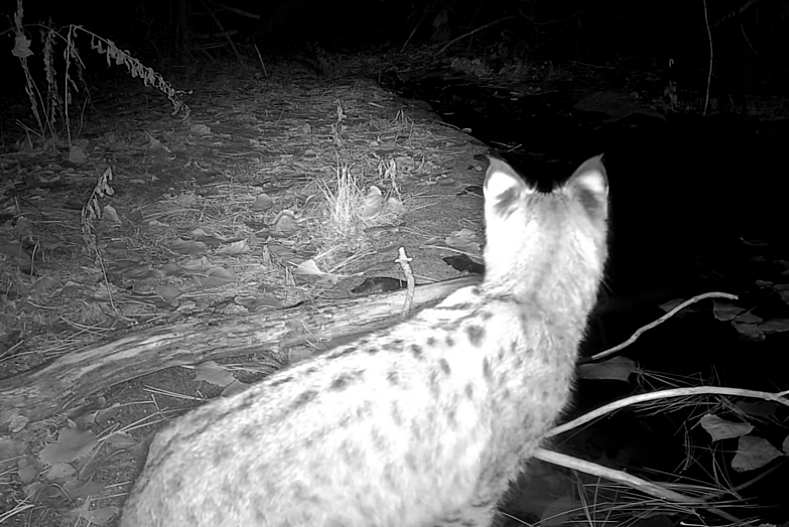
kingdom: Animalia
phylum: Chordata
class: Mammalia
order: Carnivora
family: Felidae
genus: Lynx
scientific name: Lynx rufus
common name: Bobcat
